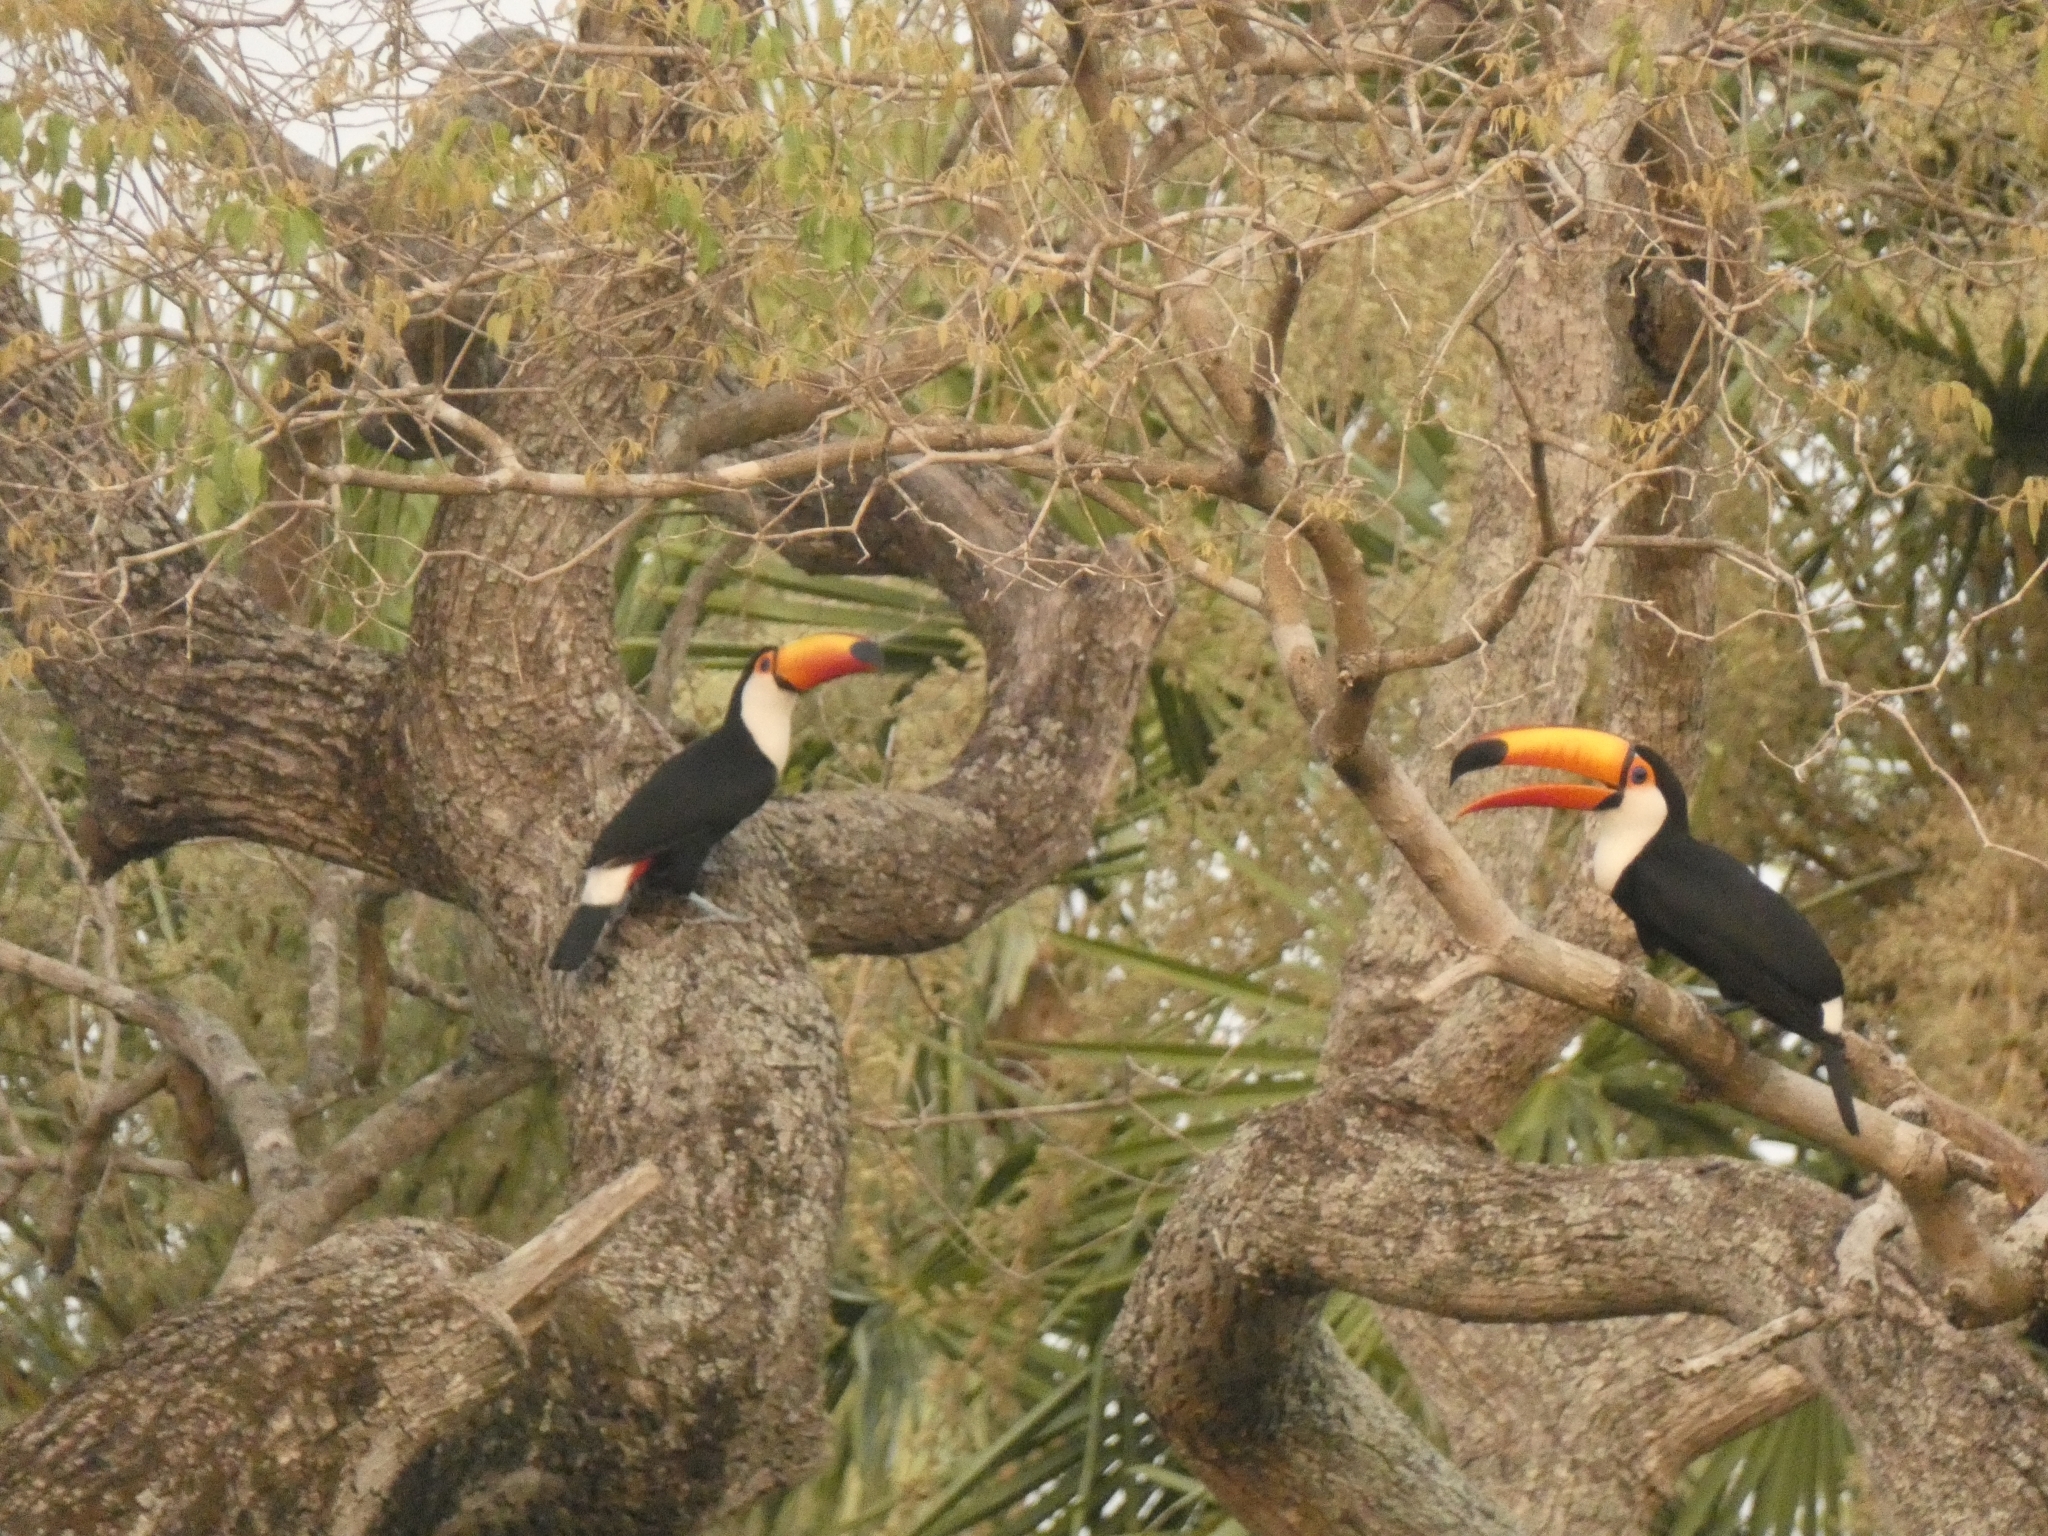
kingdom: Animalia
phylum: Chordata
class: Aves
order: Piciformes
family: Ramphastidae
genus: Ramphastos
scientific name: Ramphastos toco
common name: Toco toucan
